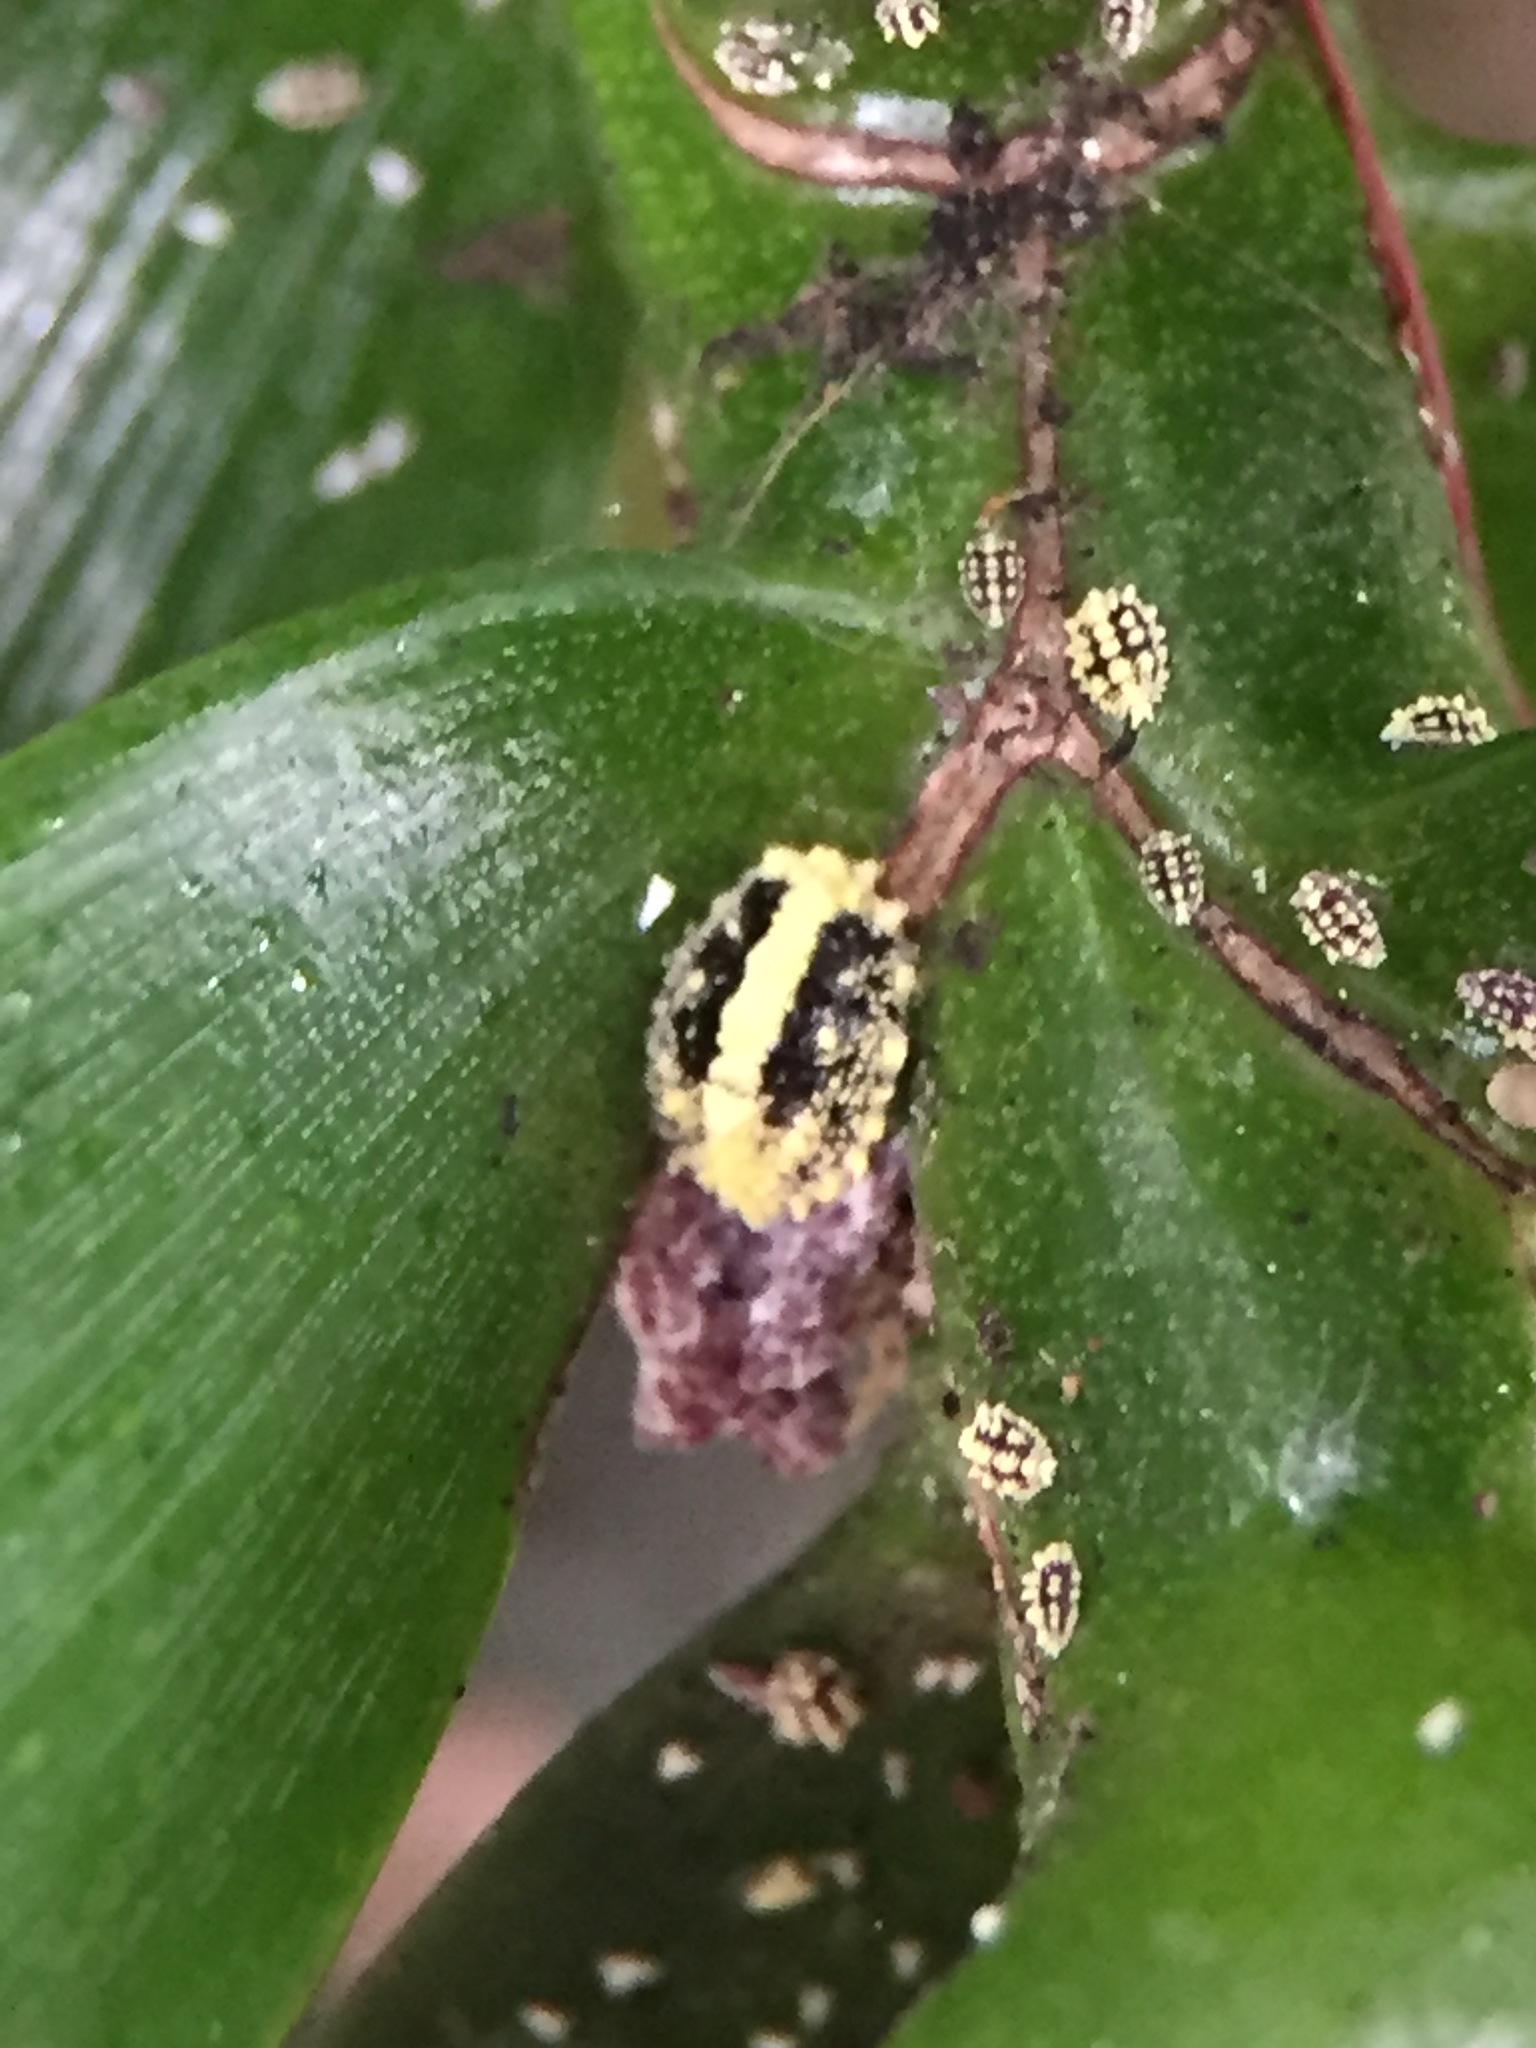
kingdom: Animalia
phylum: Arthropoda
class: Insecta
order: Hemiptera
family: Pseudococcidae
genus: Nipaecoccus
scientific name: Nipaecoccus aurilanatus
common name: Mealybug
